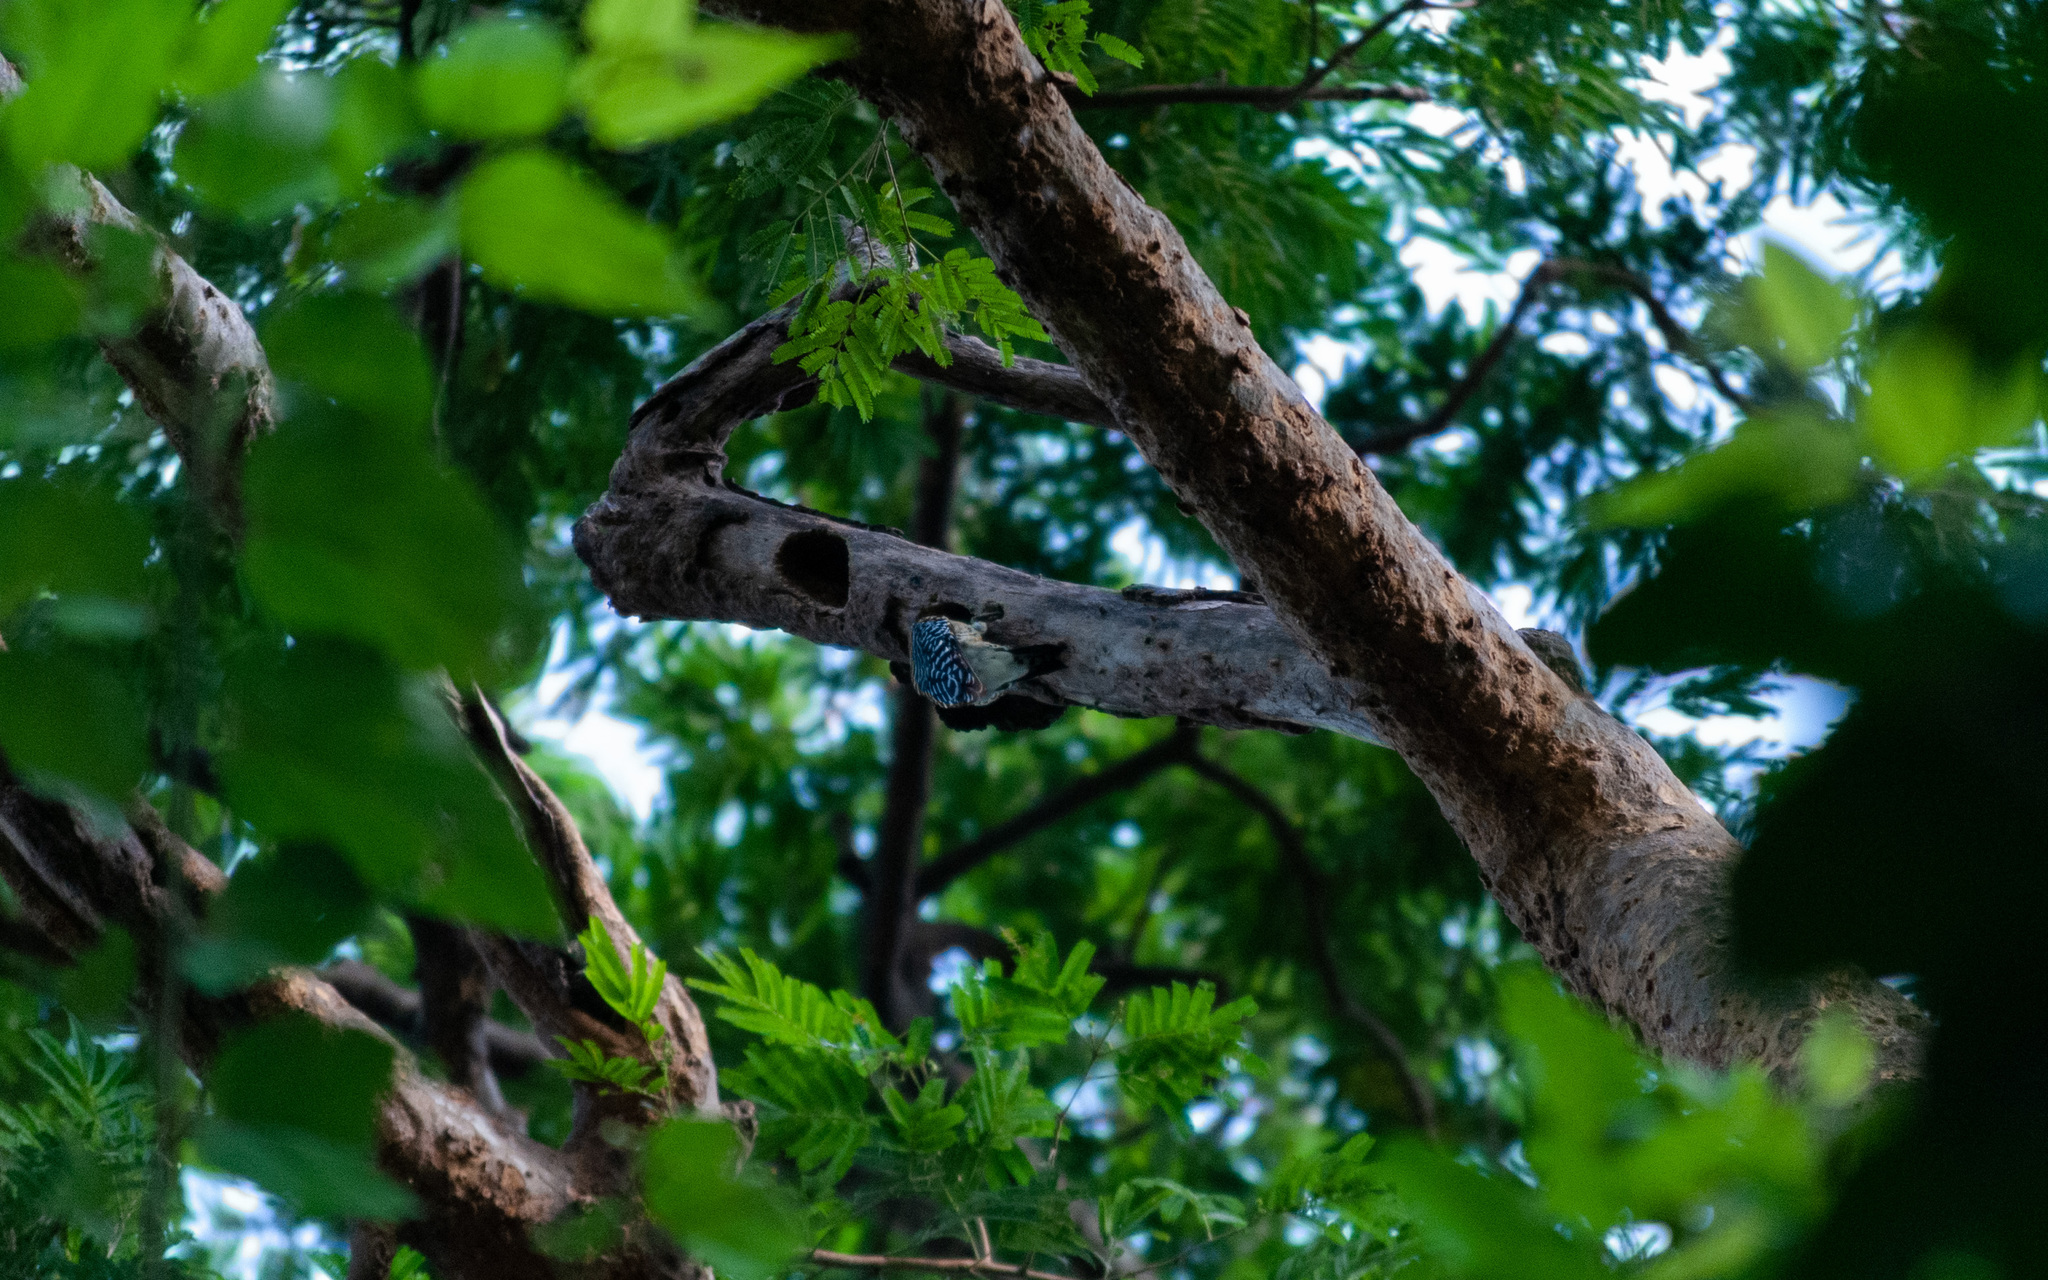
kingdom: Animalia
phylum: Chordata
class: Aves
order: Piciformes
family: Picidae
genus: Melanerpes
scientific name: Melanerpes rubricapillus
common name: Red-crowned woodpecker
